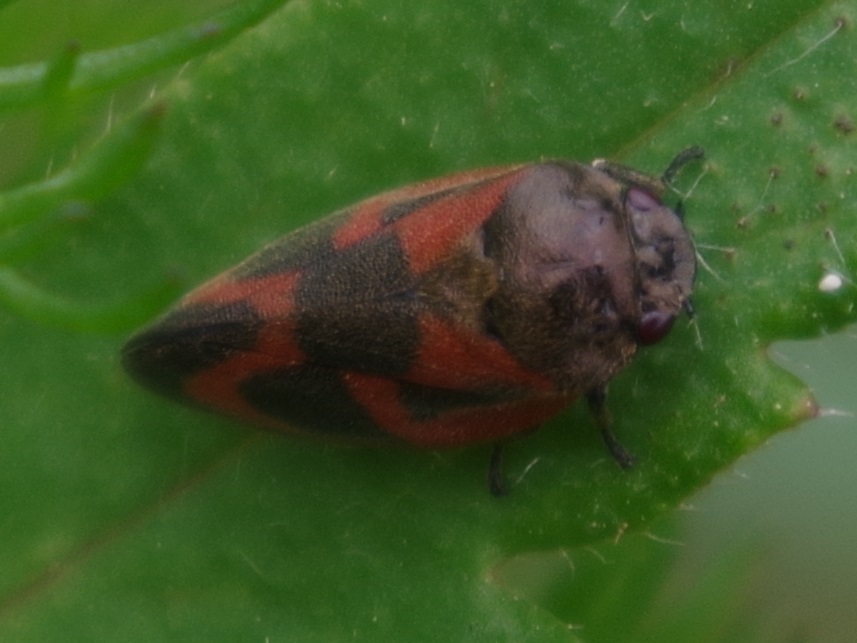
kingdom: Animalia
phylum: Arthropoda
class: Insecta
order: Hemiptera
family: Cercopidae
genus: Haematoloma
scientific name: Haematoloma dorsata
